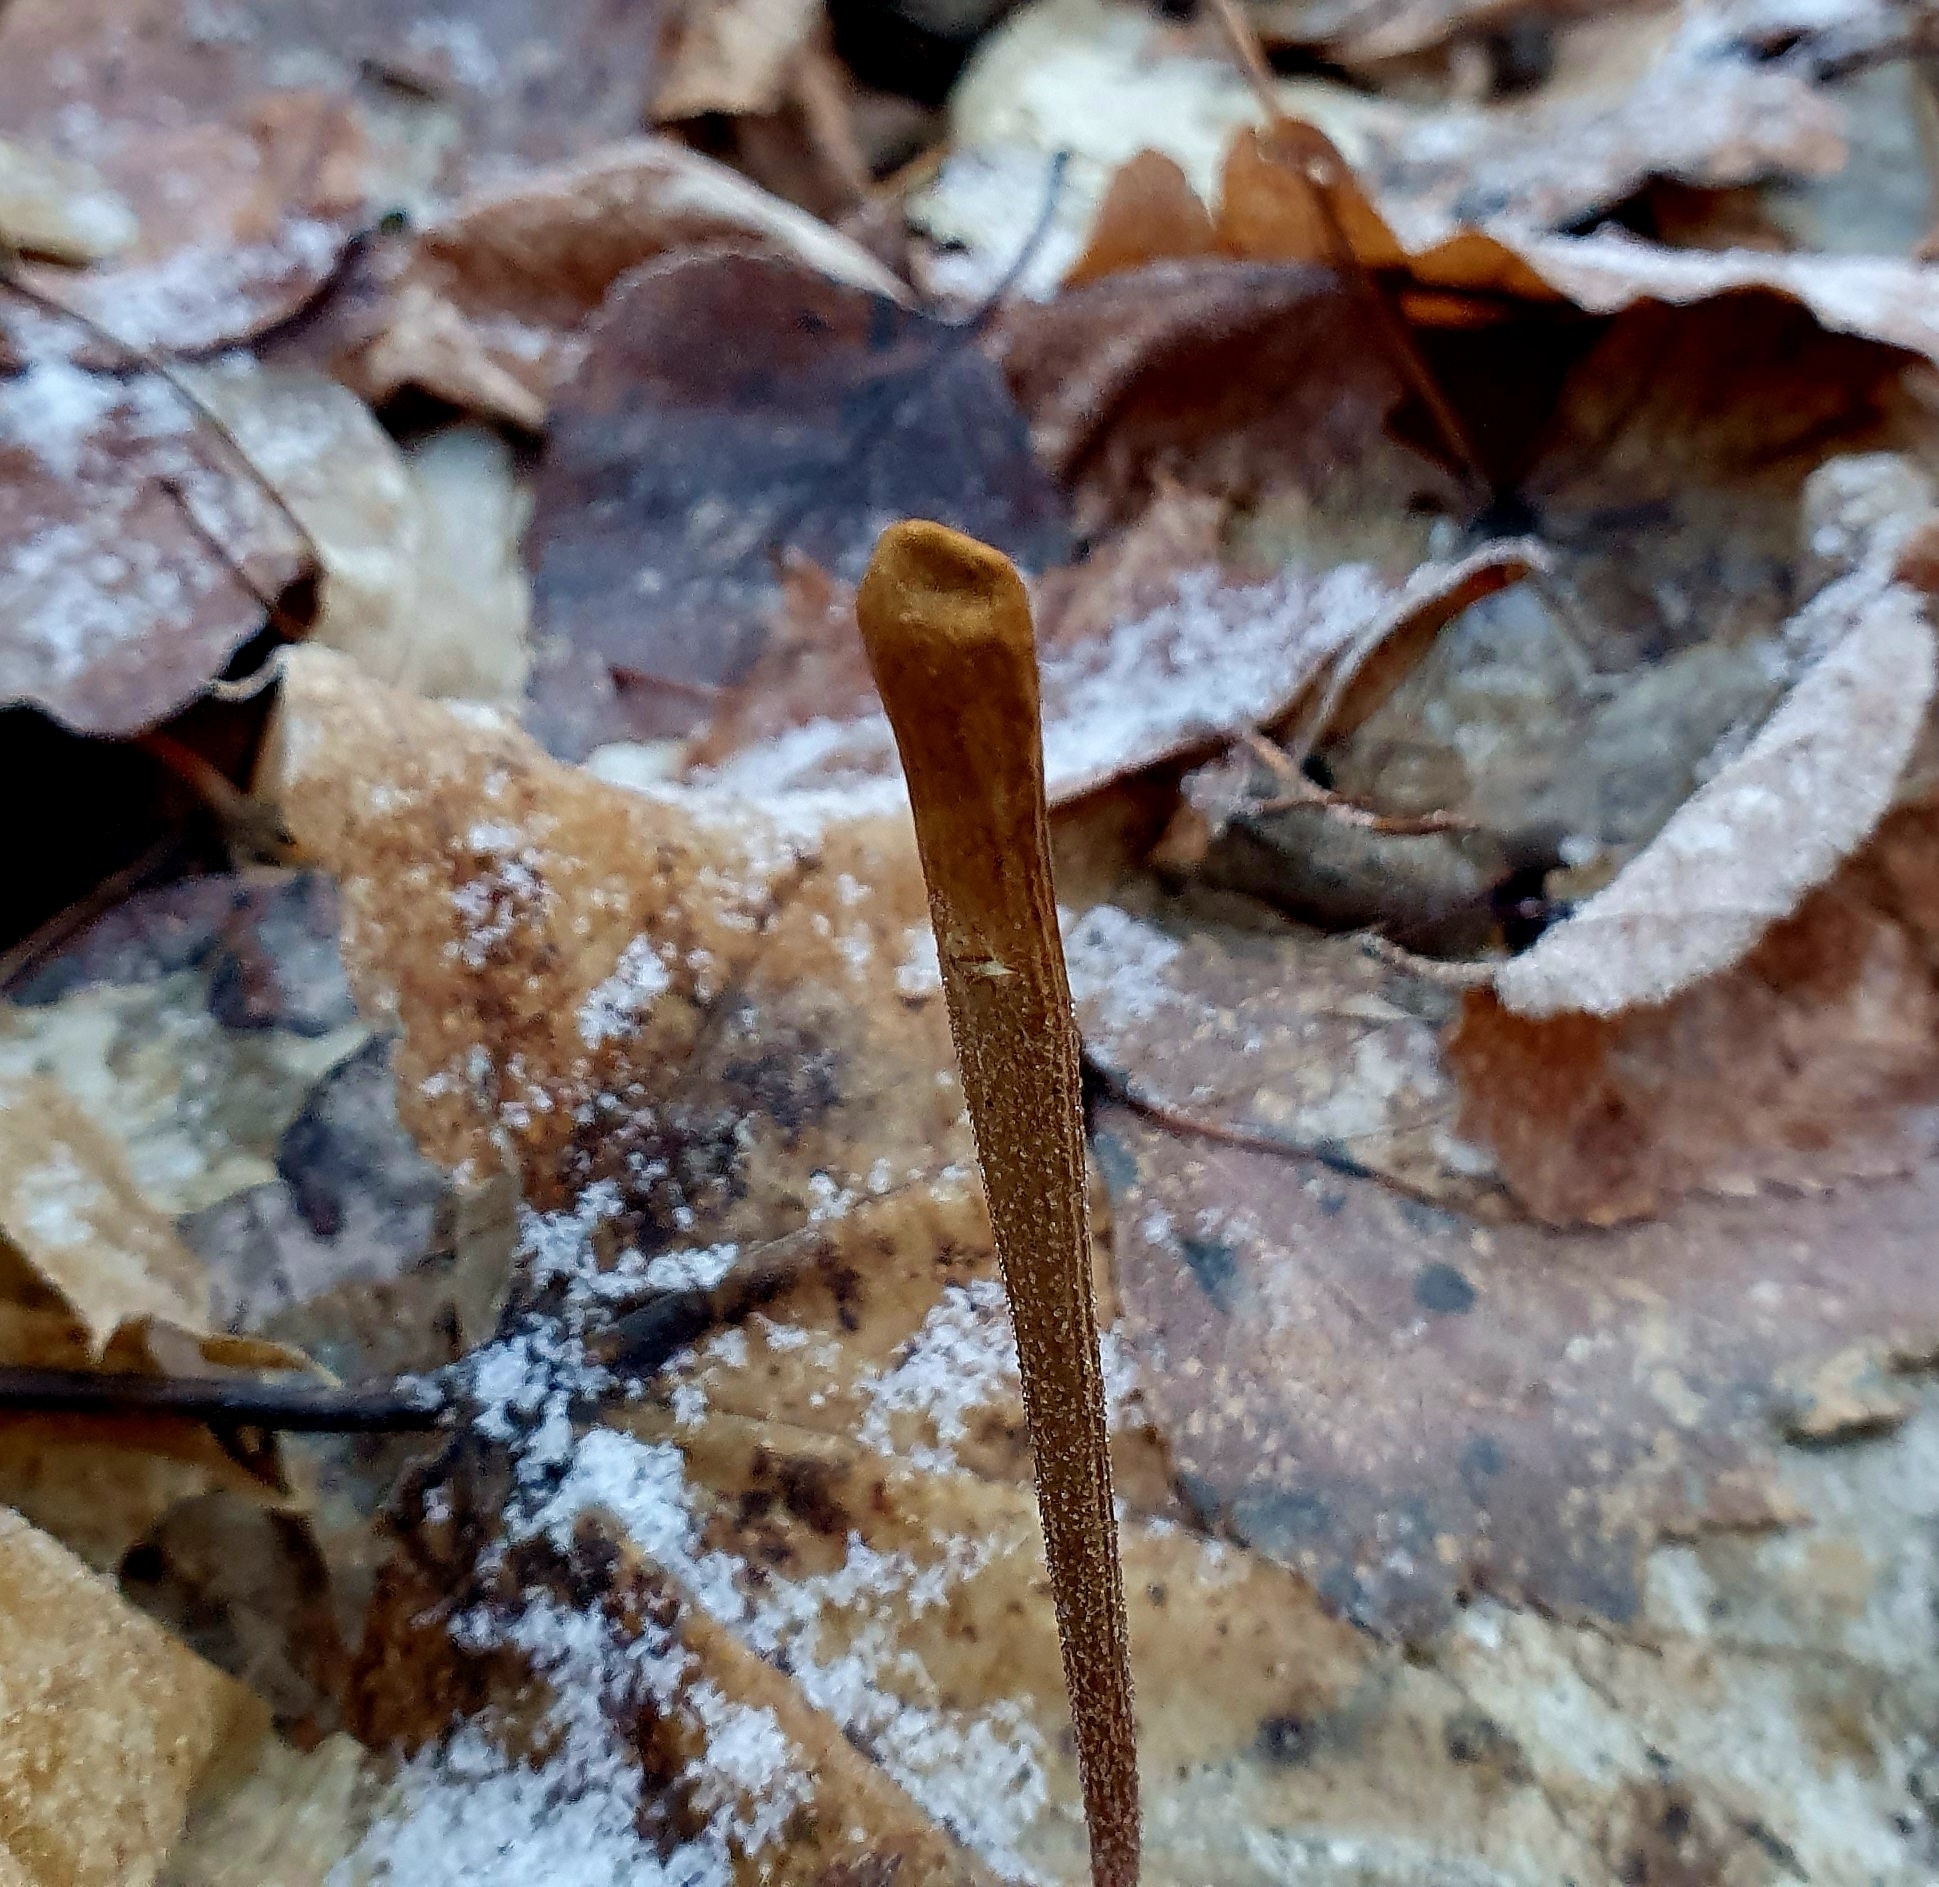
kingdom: Fungi
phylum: Basidiomycota
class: Agaricomycetes
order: Agaricales
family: Typhulaceae
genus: Typhula
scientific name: Typhula fistulosa
